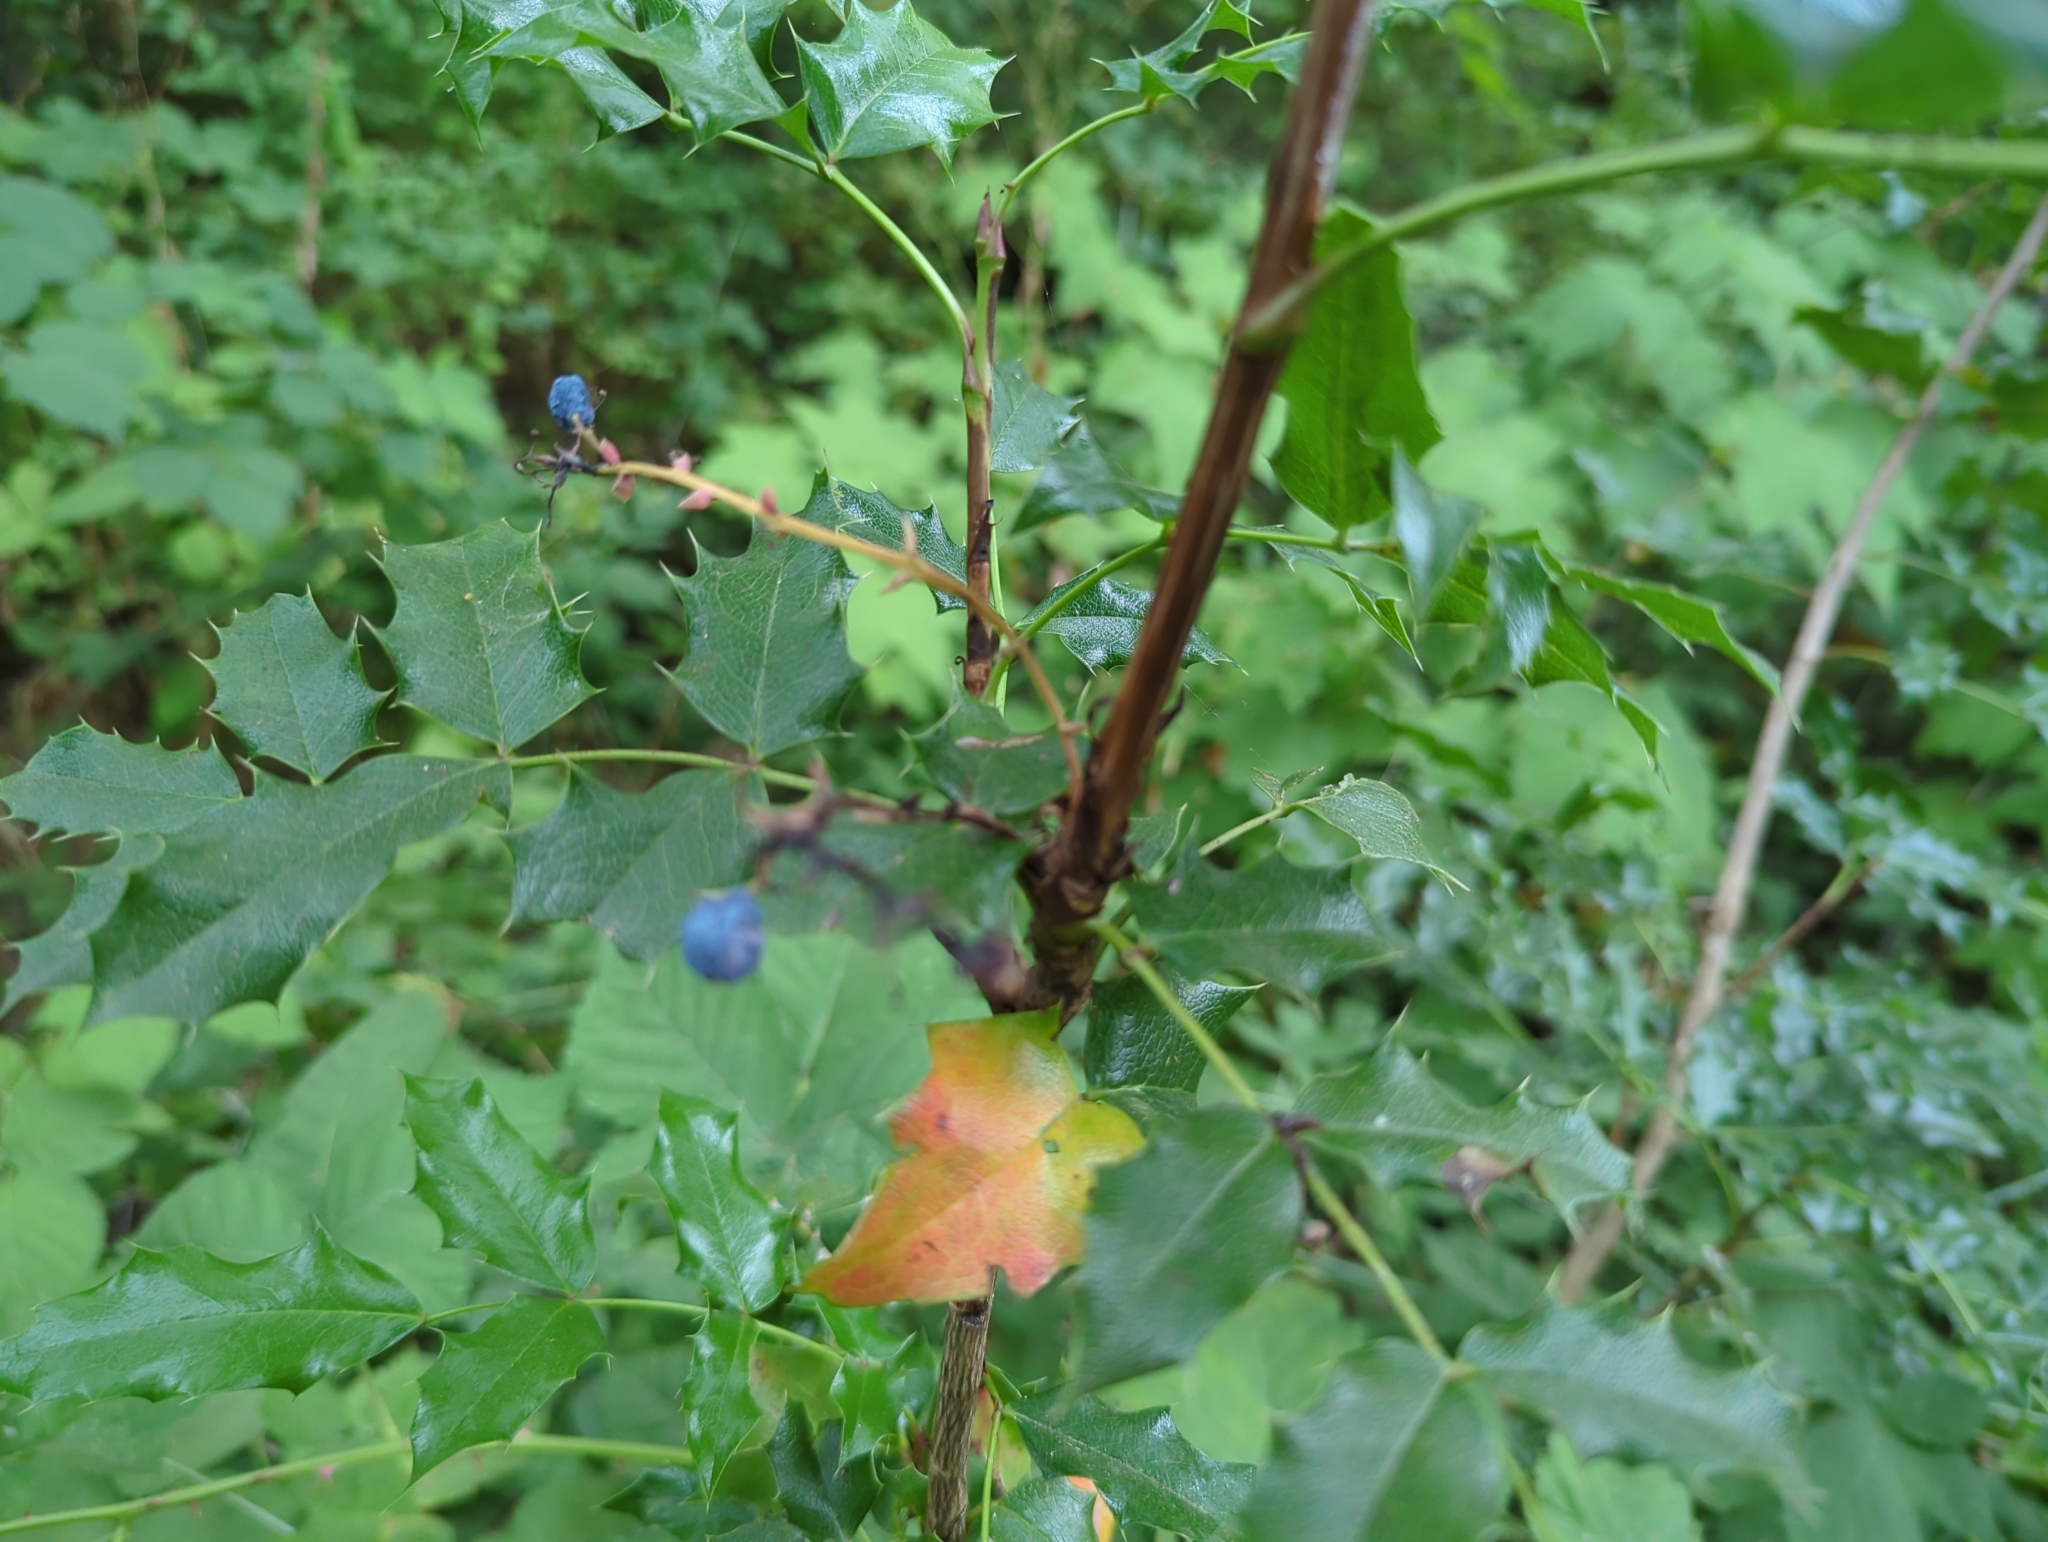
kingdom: Plantae
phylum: Tracheophyta
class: Magnoliopsida
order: Ranunculales
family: Berberidaceae
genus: Mahonia
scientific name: Mahonia aquifolium
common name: Oregon-grape
